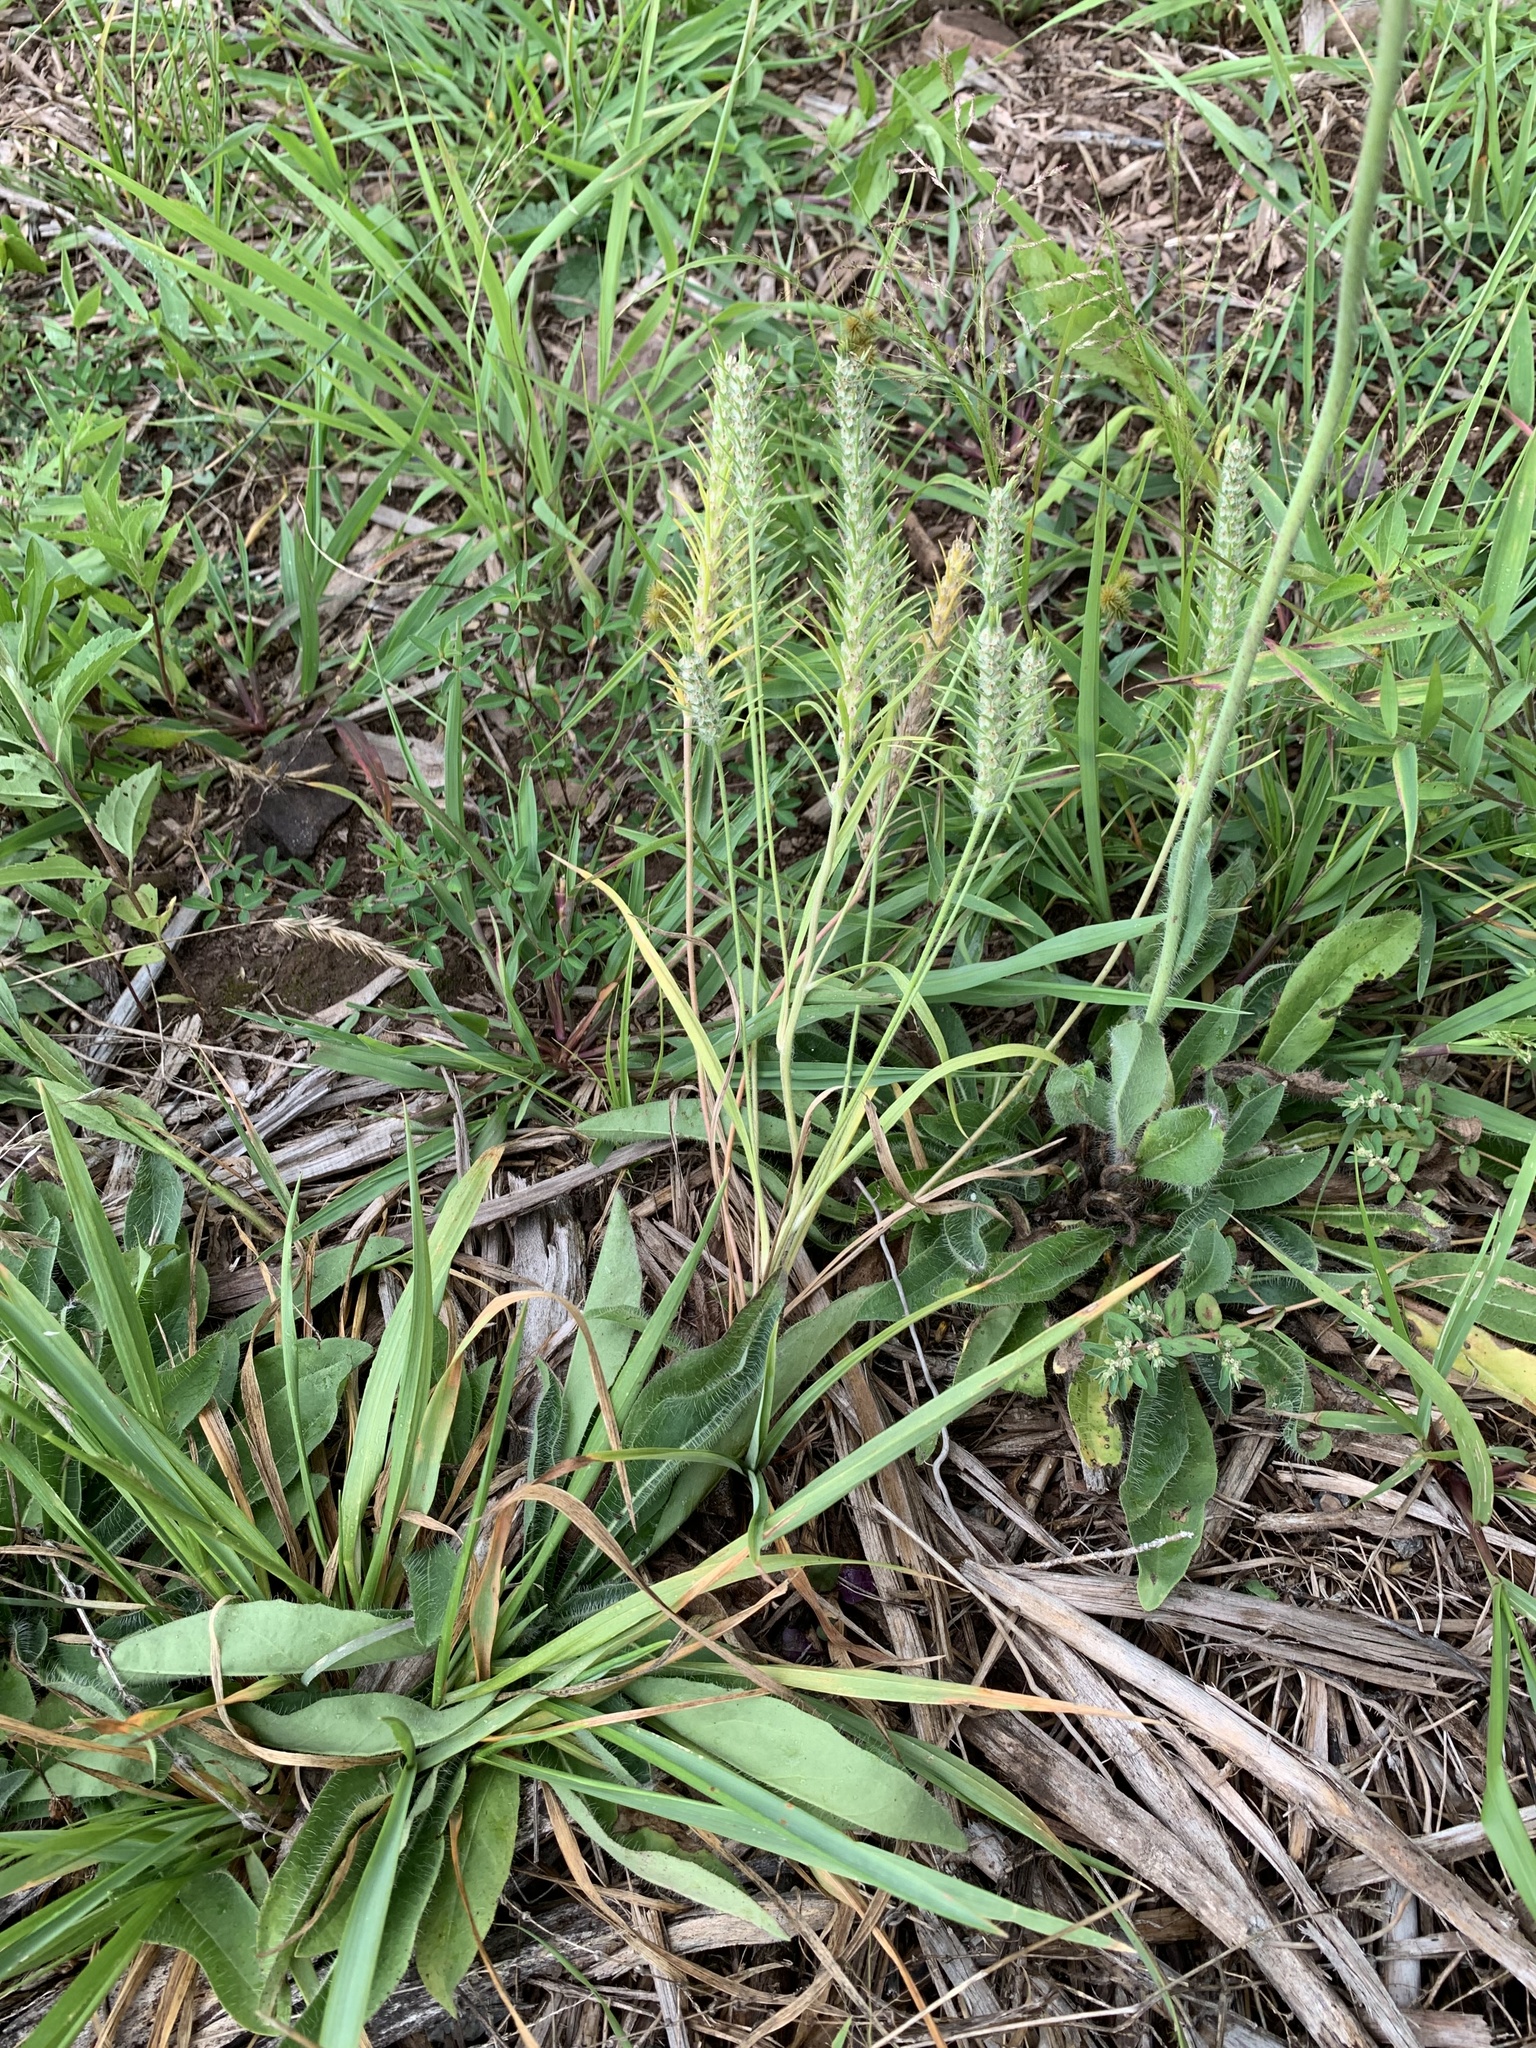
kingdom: Plantae
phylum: Tracheophyta
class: Magnoliopsida
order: Lamiales
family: Plantaginaceae
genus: Plantago
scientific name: Plantago aristata
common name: Bracted plantain
